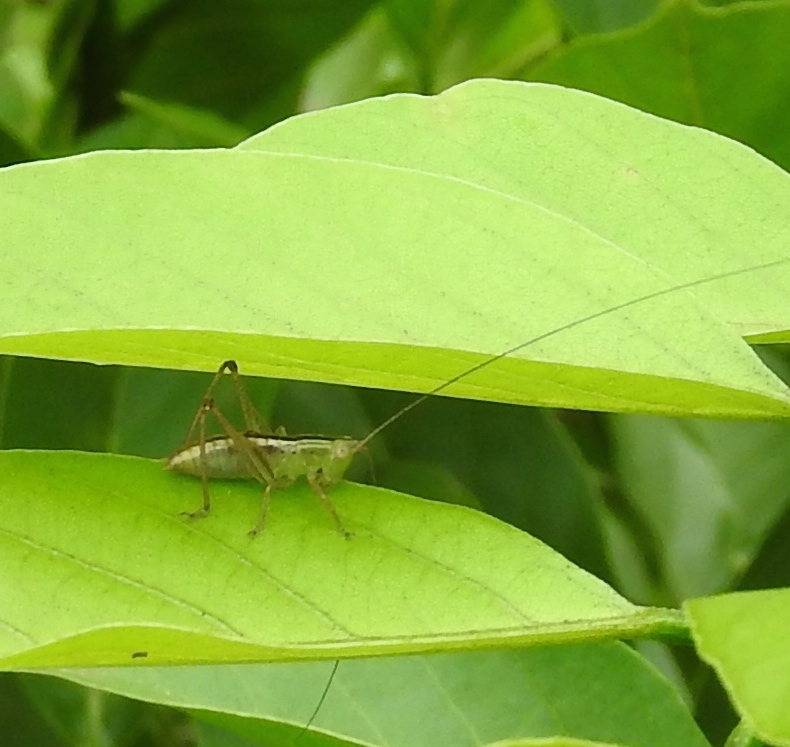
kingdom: Animalia
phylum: Arthropoda
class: Insecta
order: Orthoptera
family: Tettigoniidae
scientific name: Tettigoniidae
